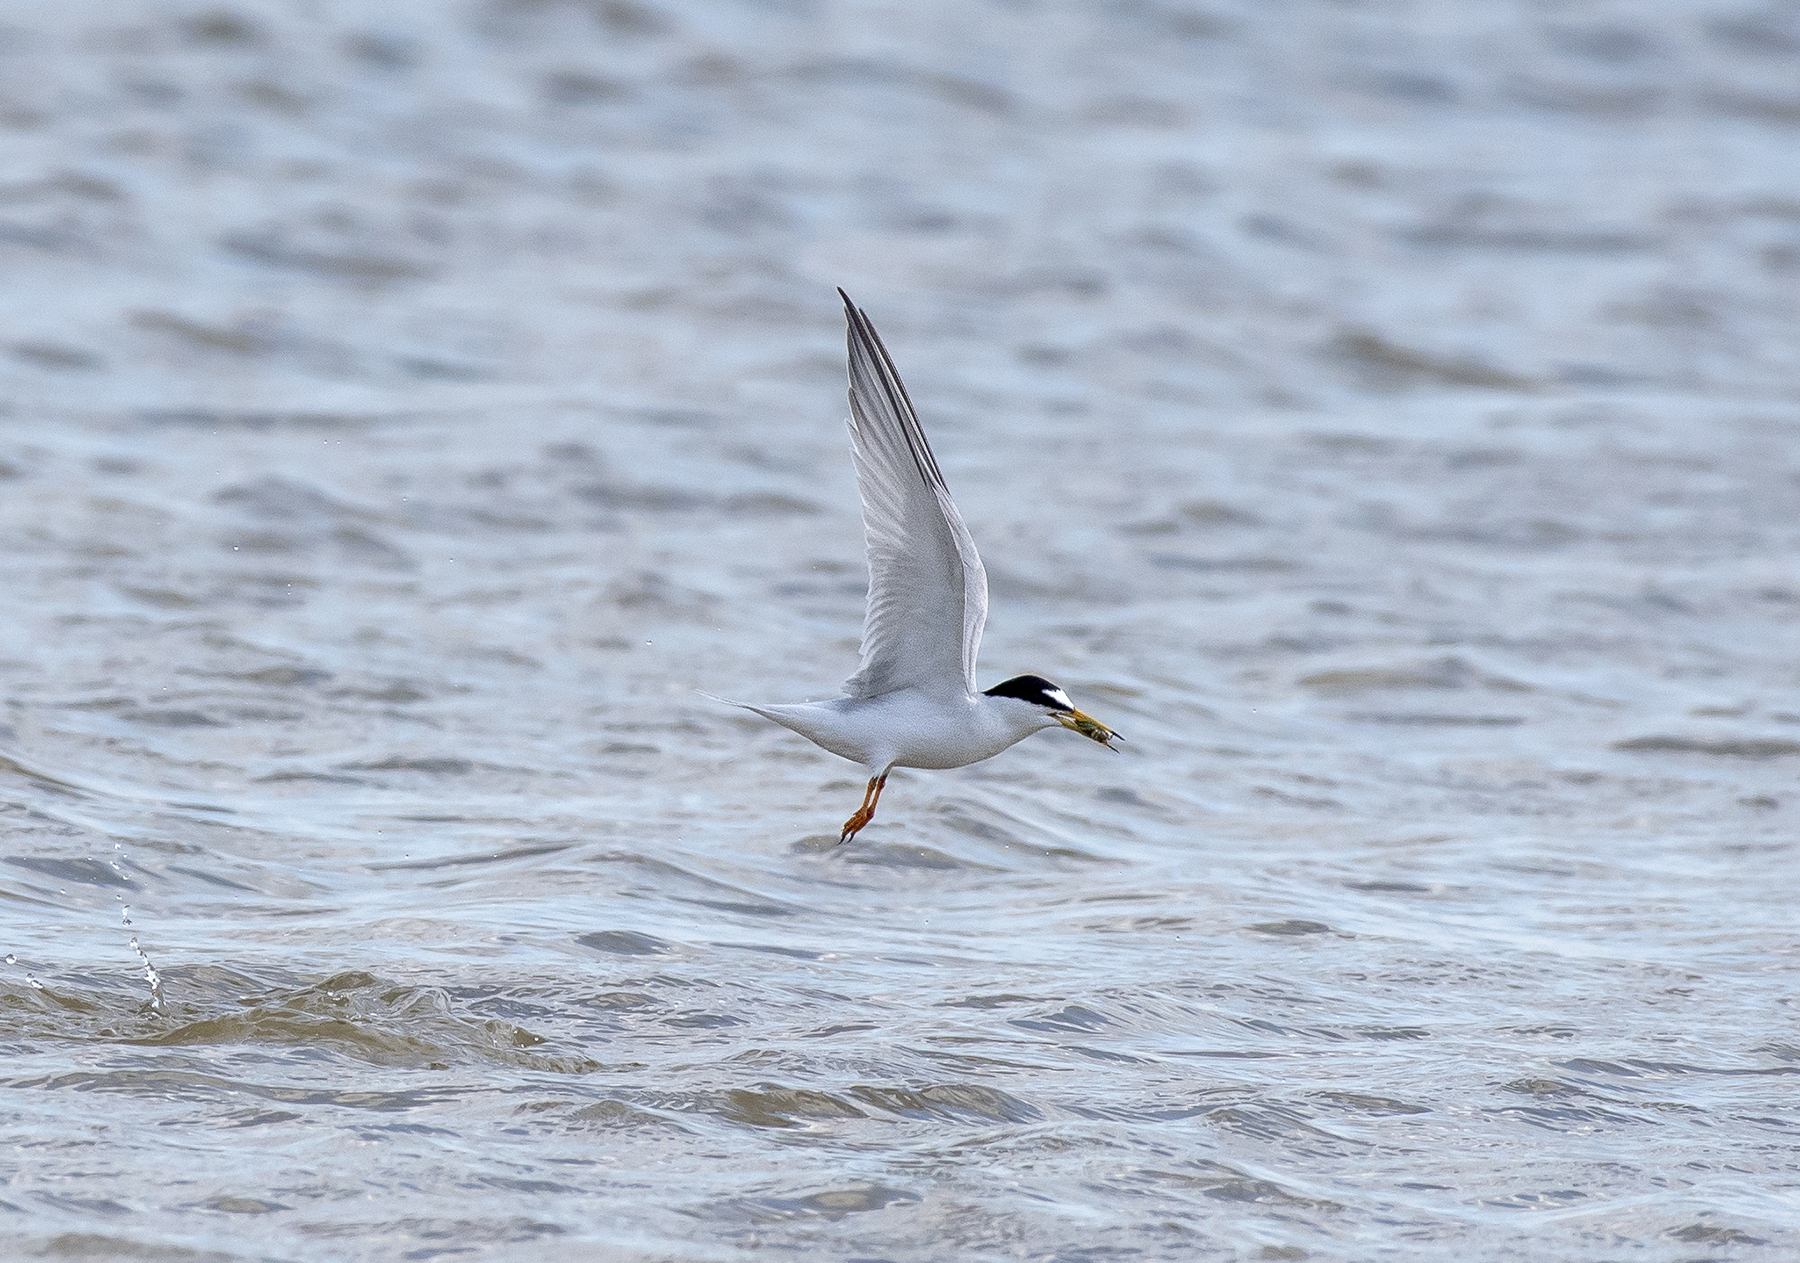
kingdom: Animalia
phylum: Chordata
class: Aves
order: Charadriiformes
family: Laridae
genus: Sternula
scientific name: Sternula albifrons
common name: Little tern
